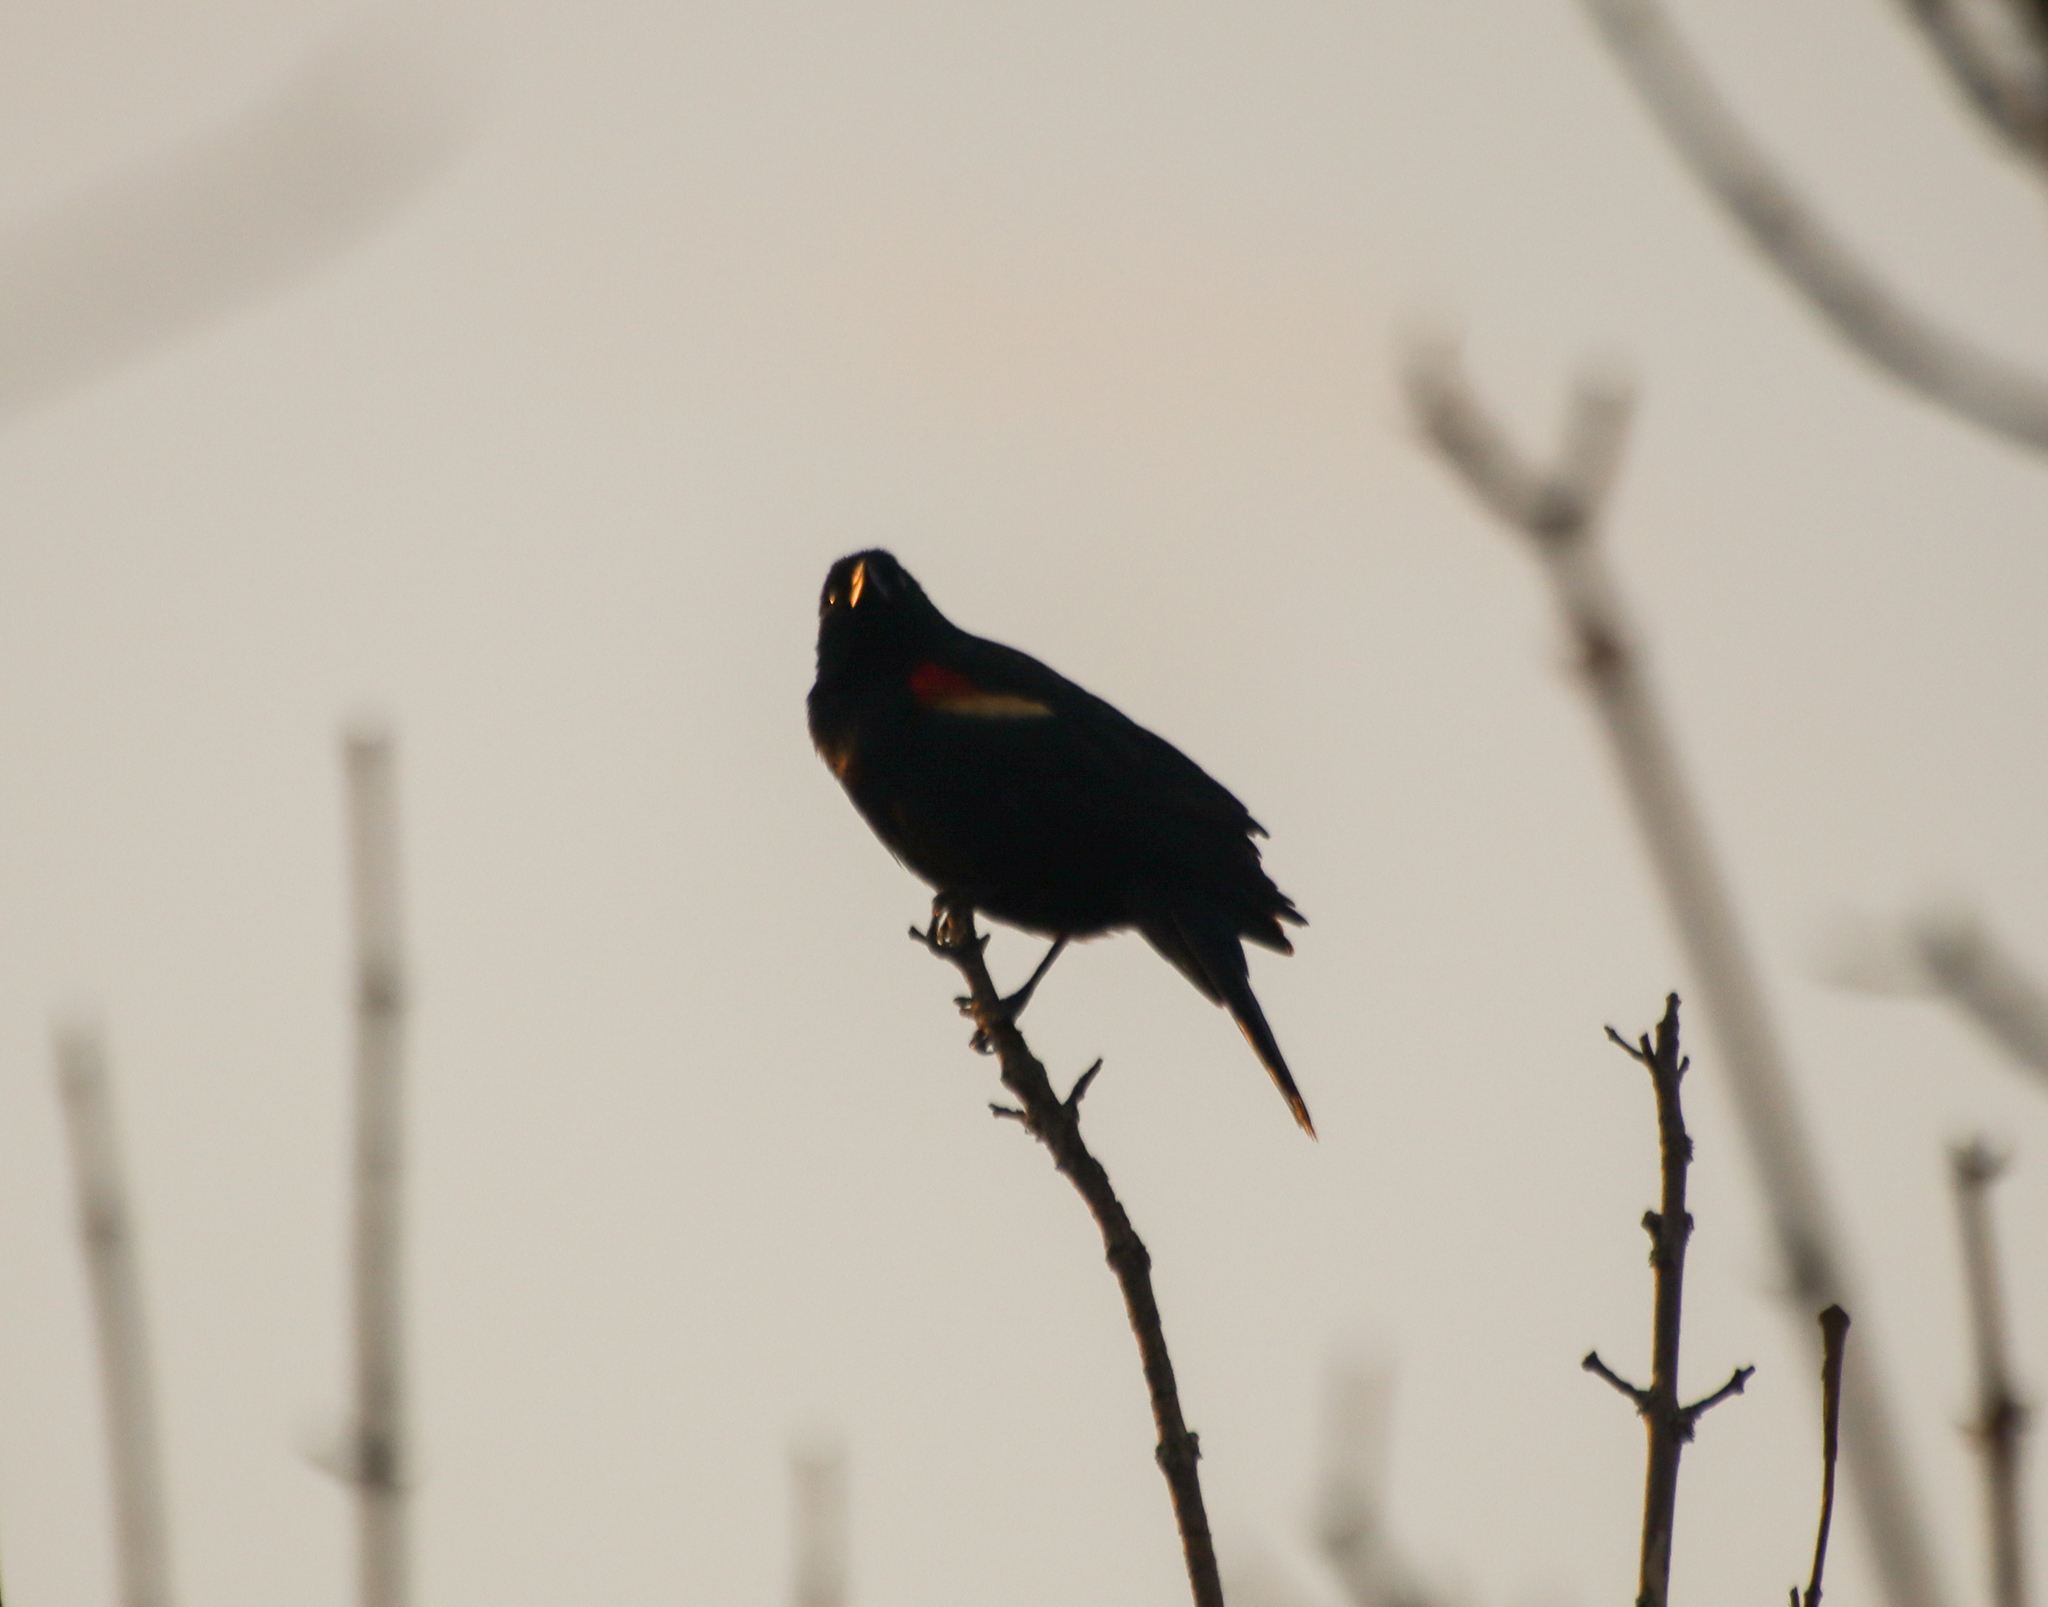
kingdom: Animalia
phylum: Chordata
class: Aves
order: Passeriformes
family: Icteridae
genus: Agelaius
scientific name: Agelaius phoeniceus
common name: Red-winged blackbird
